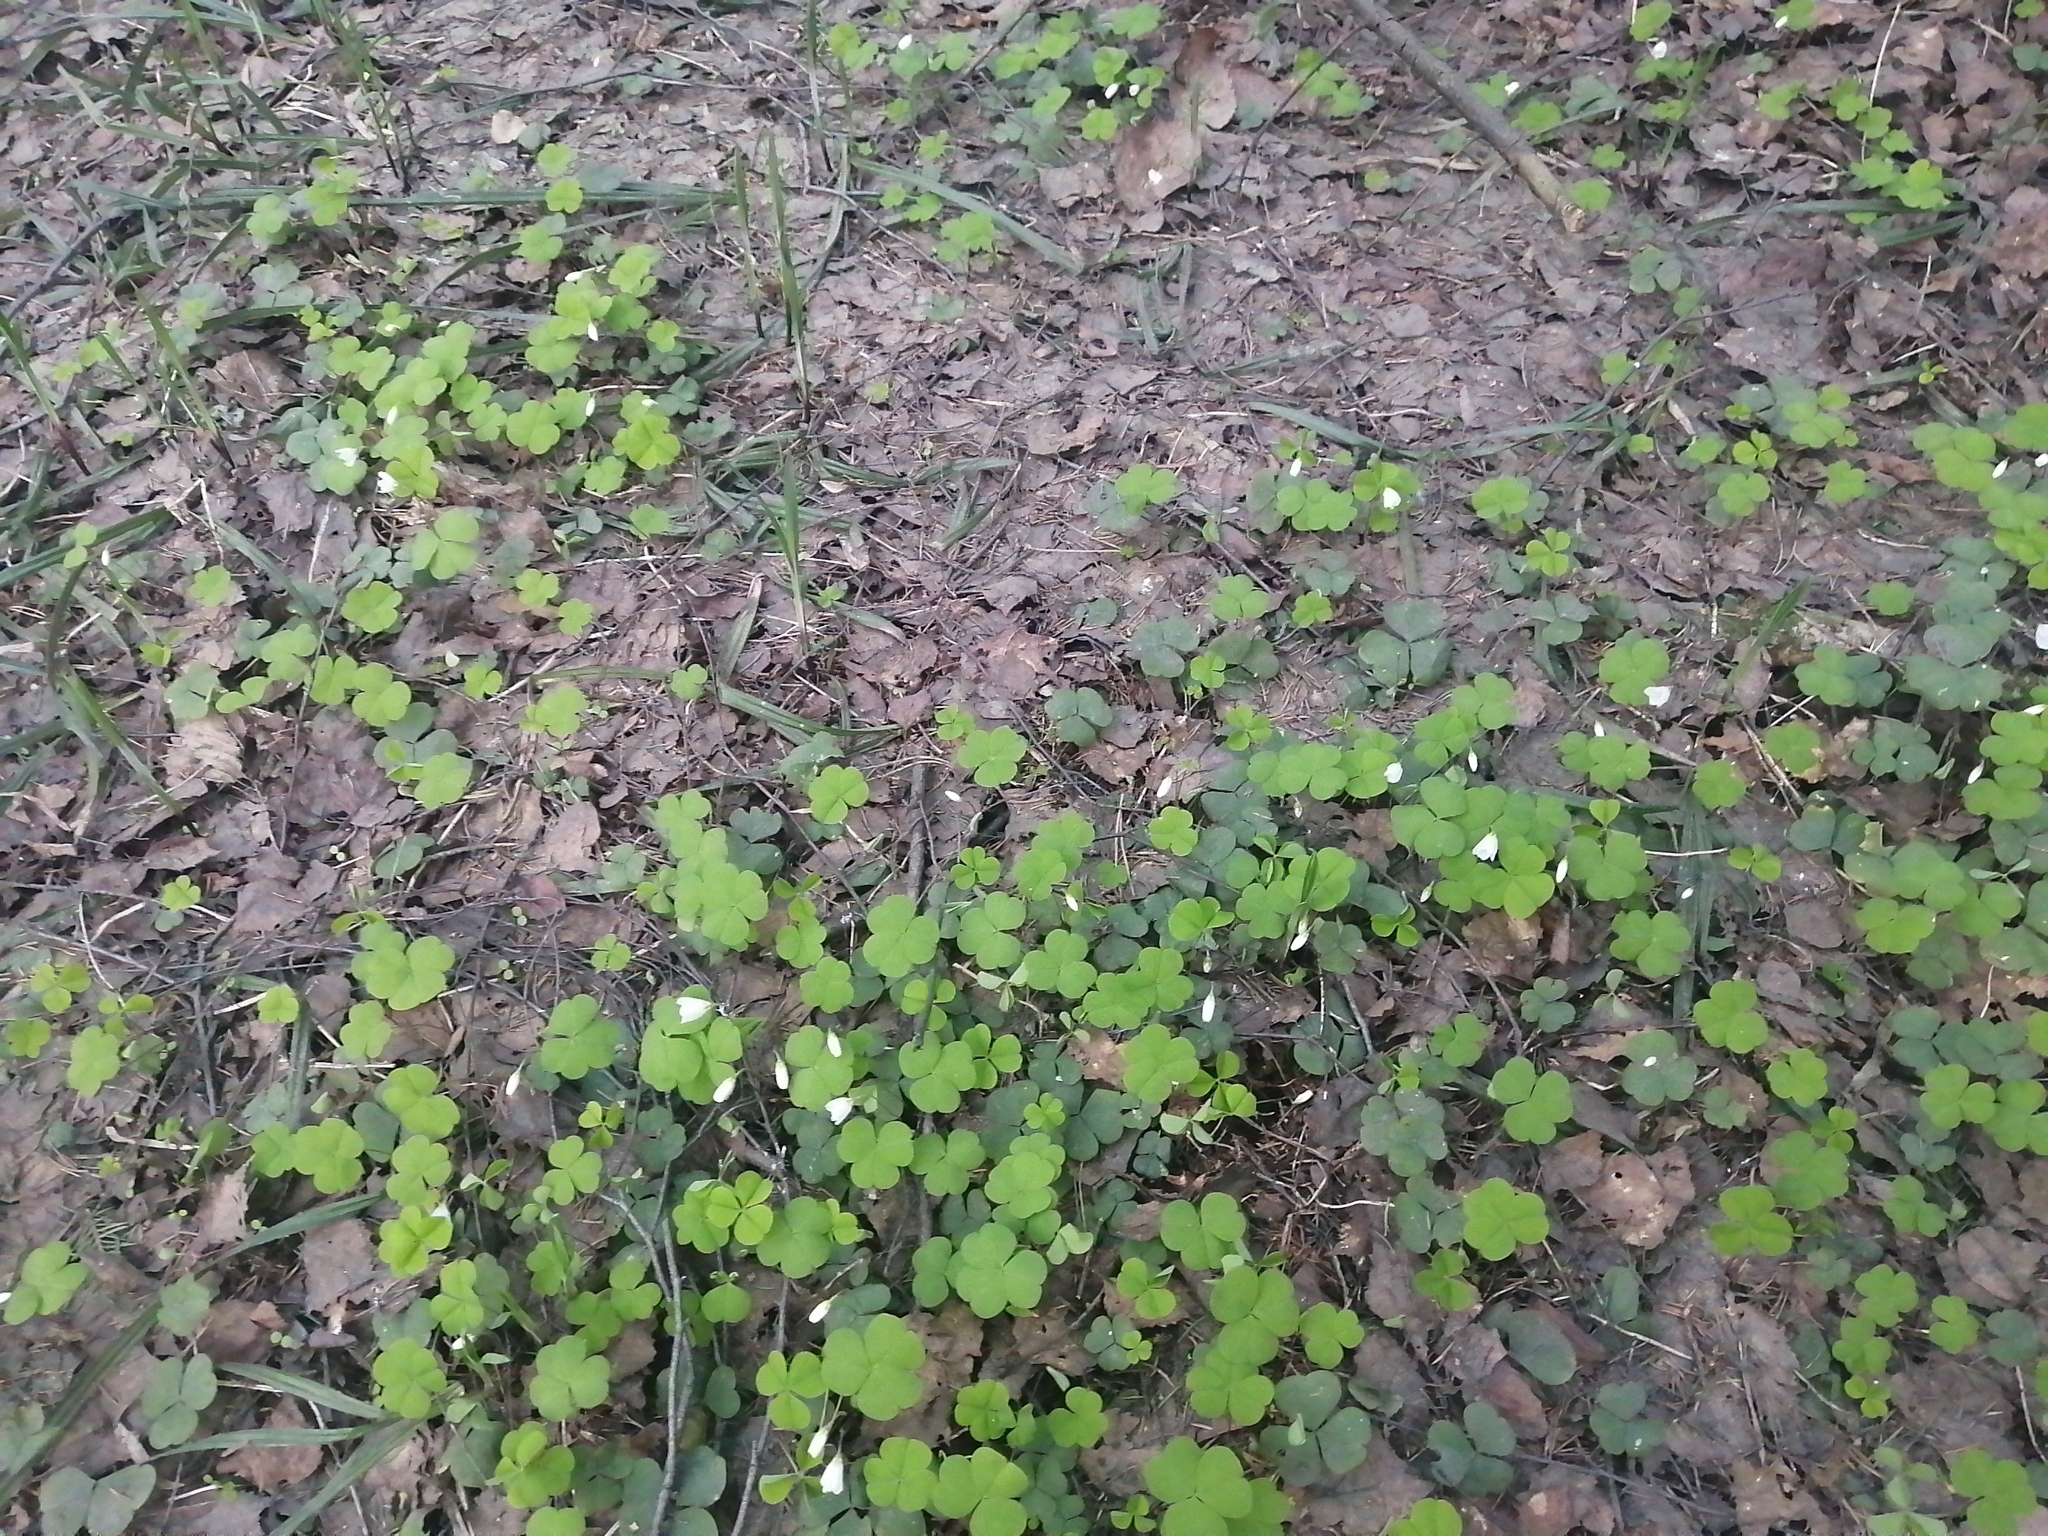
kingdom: Plantae
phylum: Tracheophyta
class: Magnoliopsida
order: Oxalidales
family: Oxalidaceae
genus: Oxalis
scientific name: Oxalis acetosella
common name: Wood-sorrel
